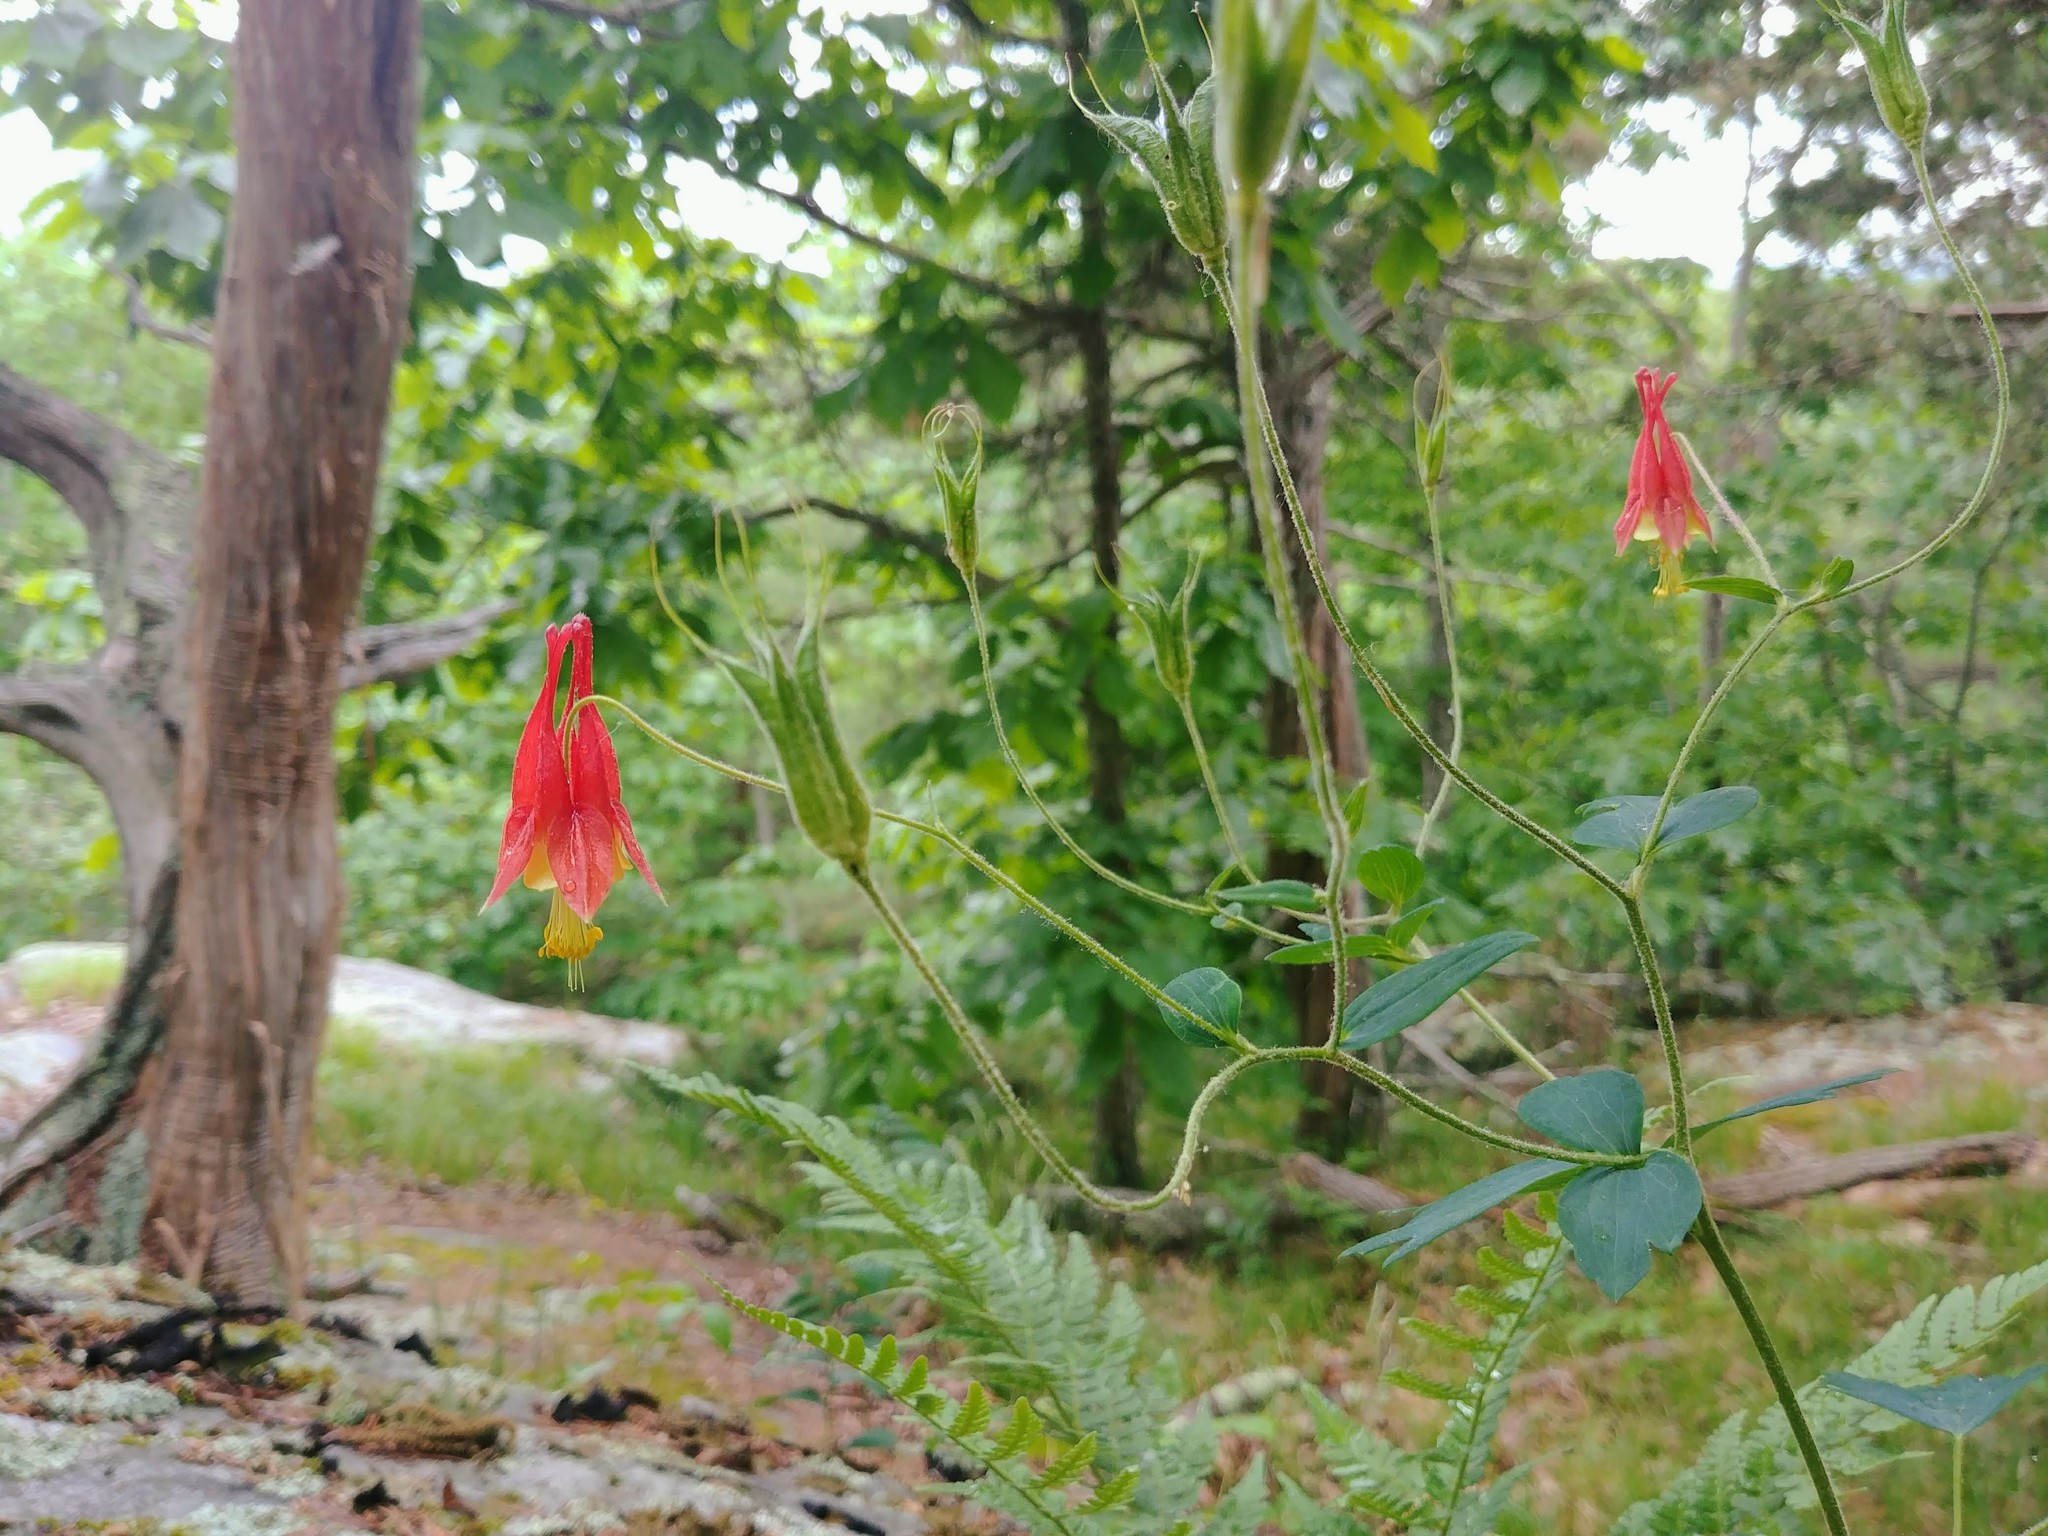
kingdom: Plantae
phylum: Tracheophyta
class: Magnoliopsida
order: Ranunculales
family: Ranunculaceae
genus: Aquilegia
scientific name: Aquilegia canadensis
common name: American columbine
